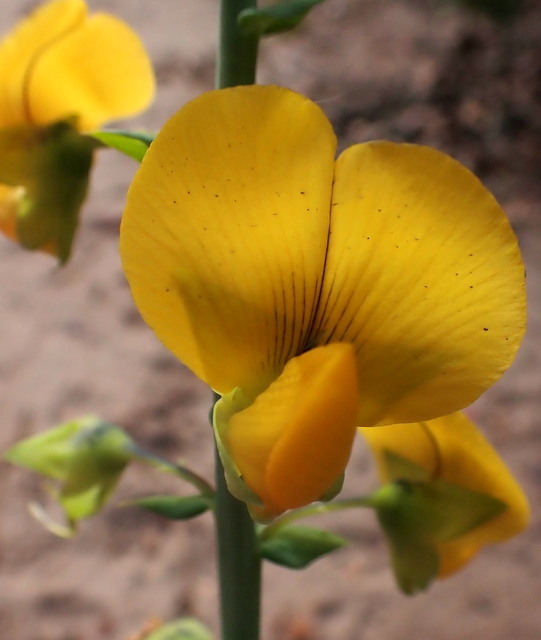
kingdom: Plantae
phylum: Tracheophyta
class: Magnoliopsida
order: Fabales
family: Fabaceae
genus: Crotalaria
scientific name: Crotalaria spectabilis
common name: Showy rattlebox
